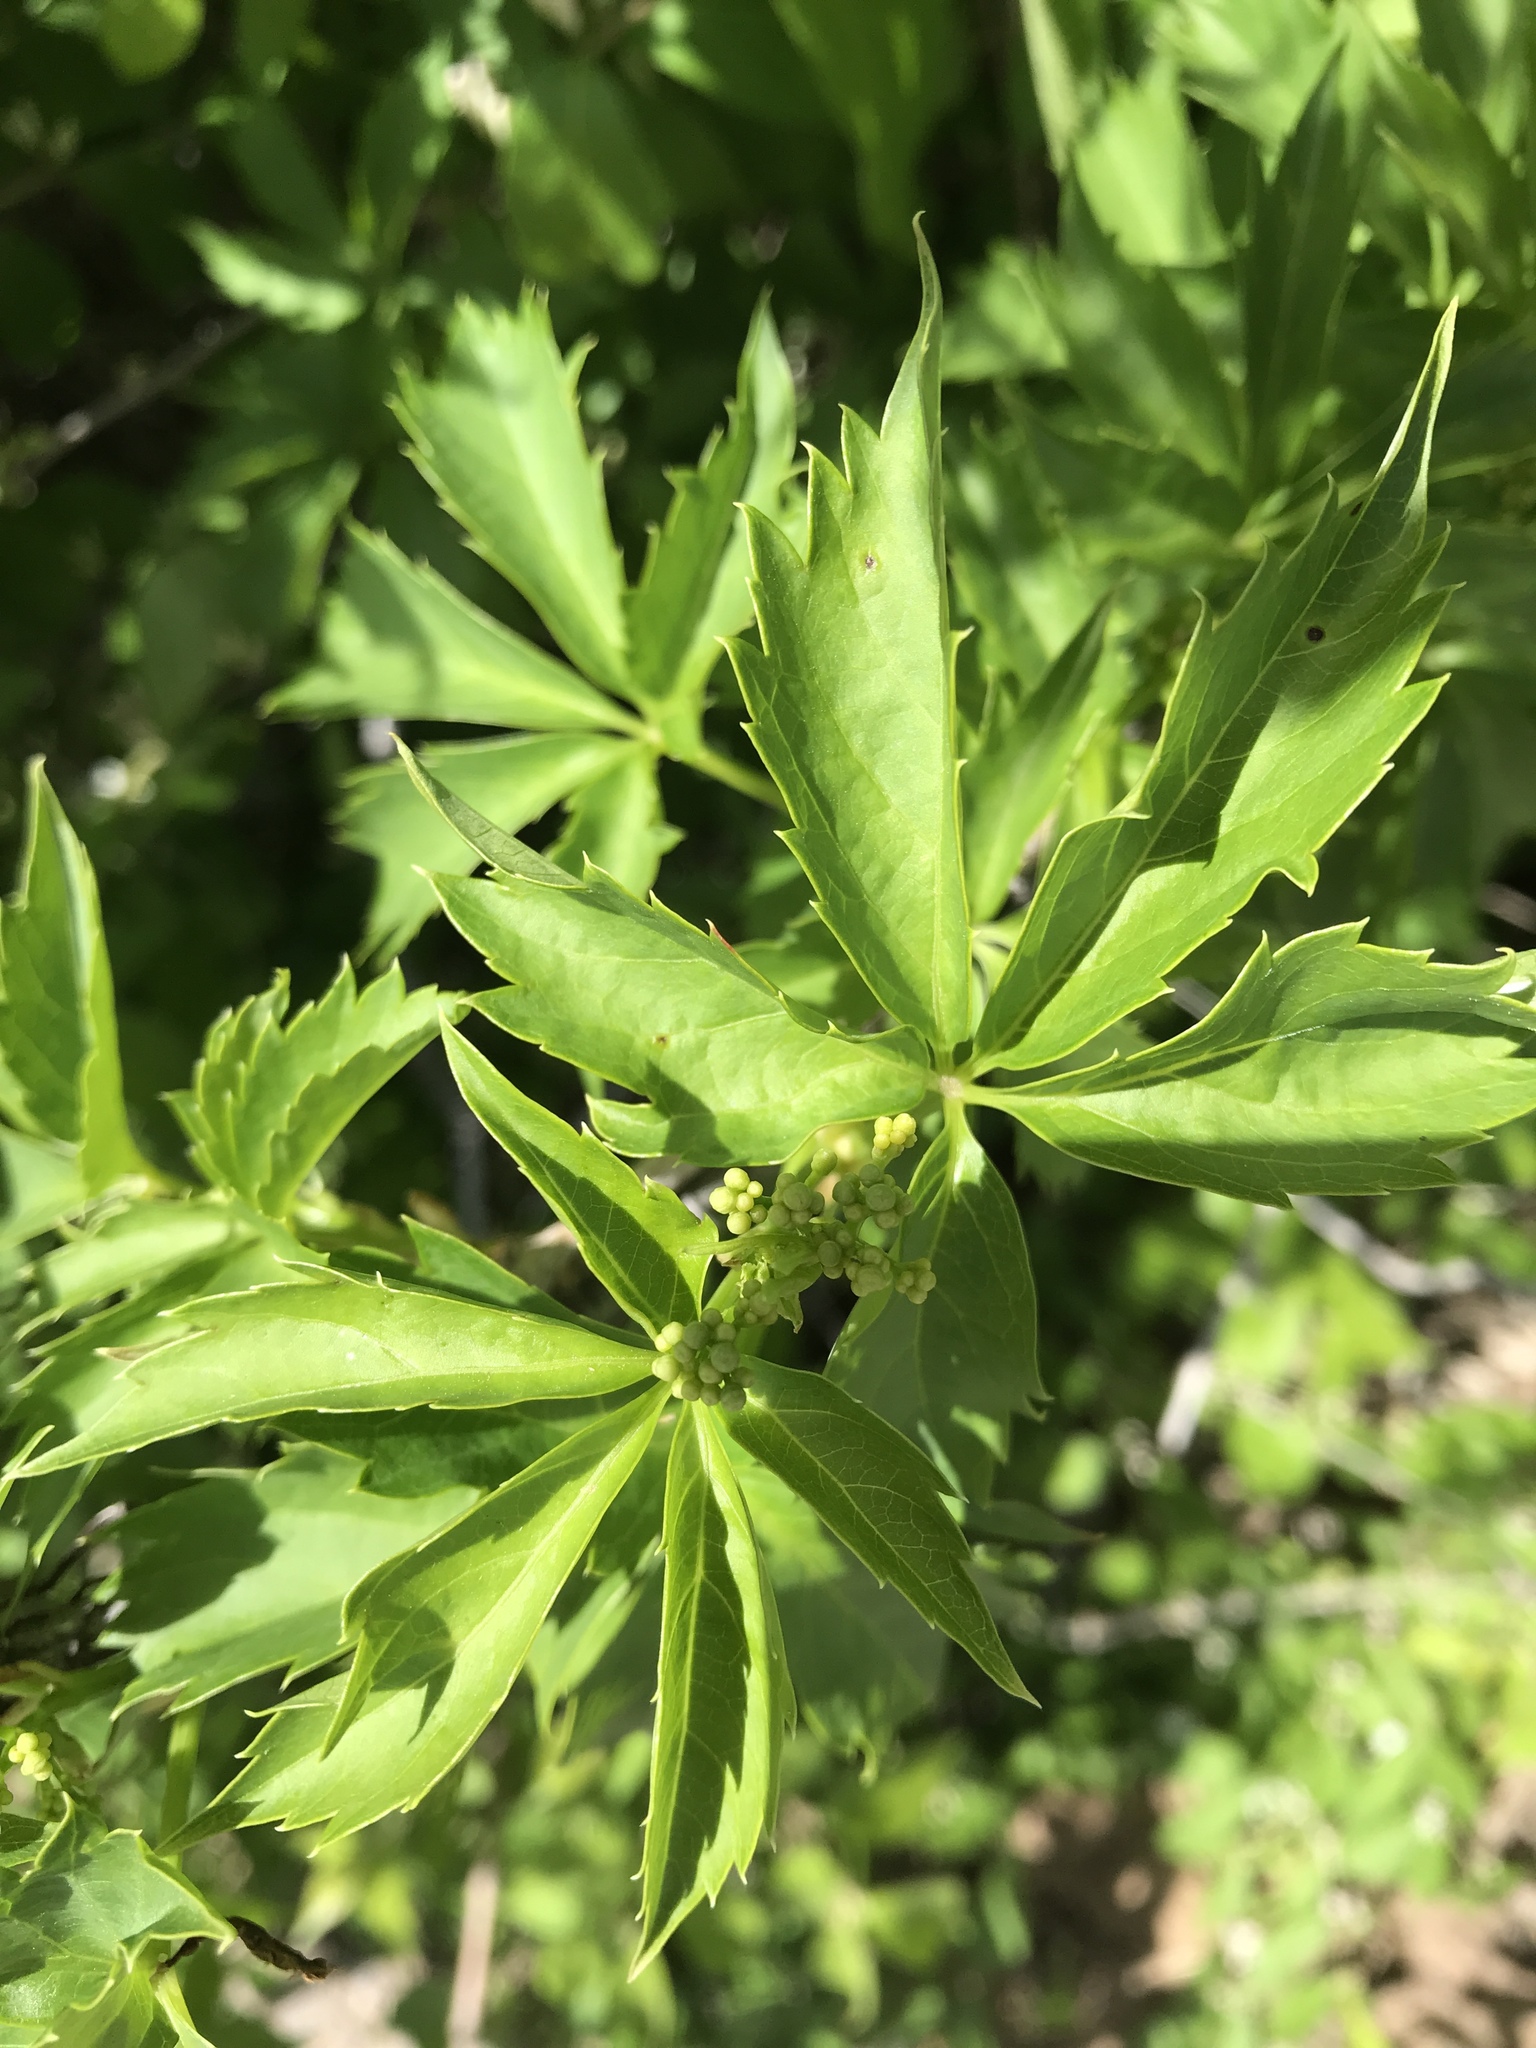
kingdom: Plantae
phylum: Tracheophyta
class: Magnoliopsida
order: Vitales
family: Vitaceae
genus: Parthenocissus
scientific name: Parthenocissus quinquefolia
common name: Virginia-creeper
